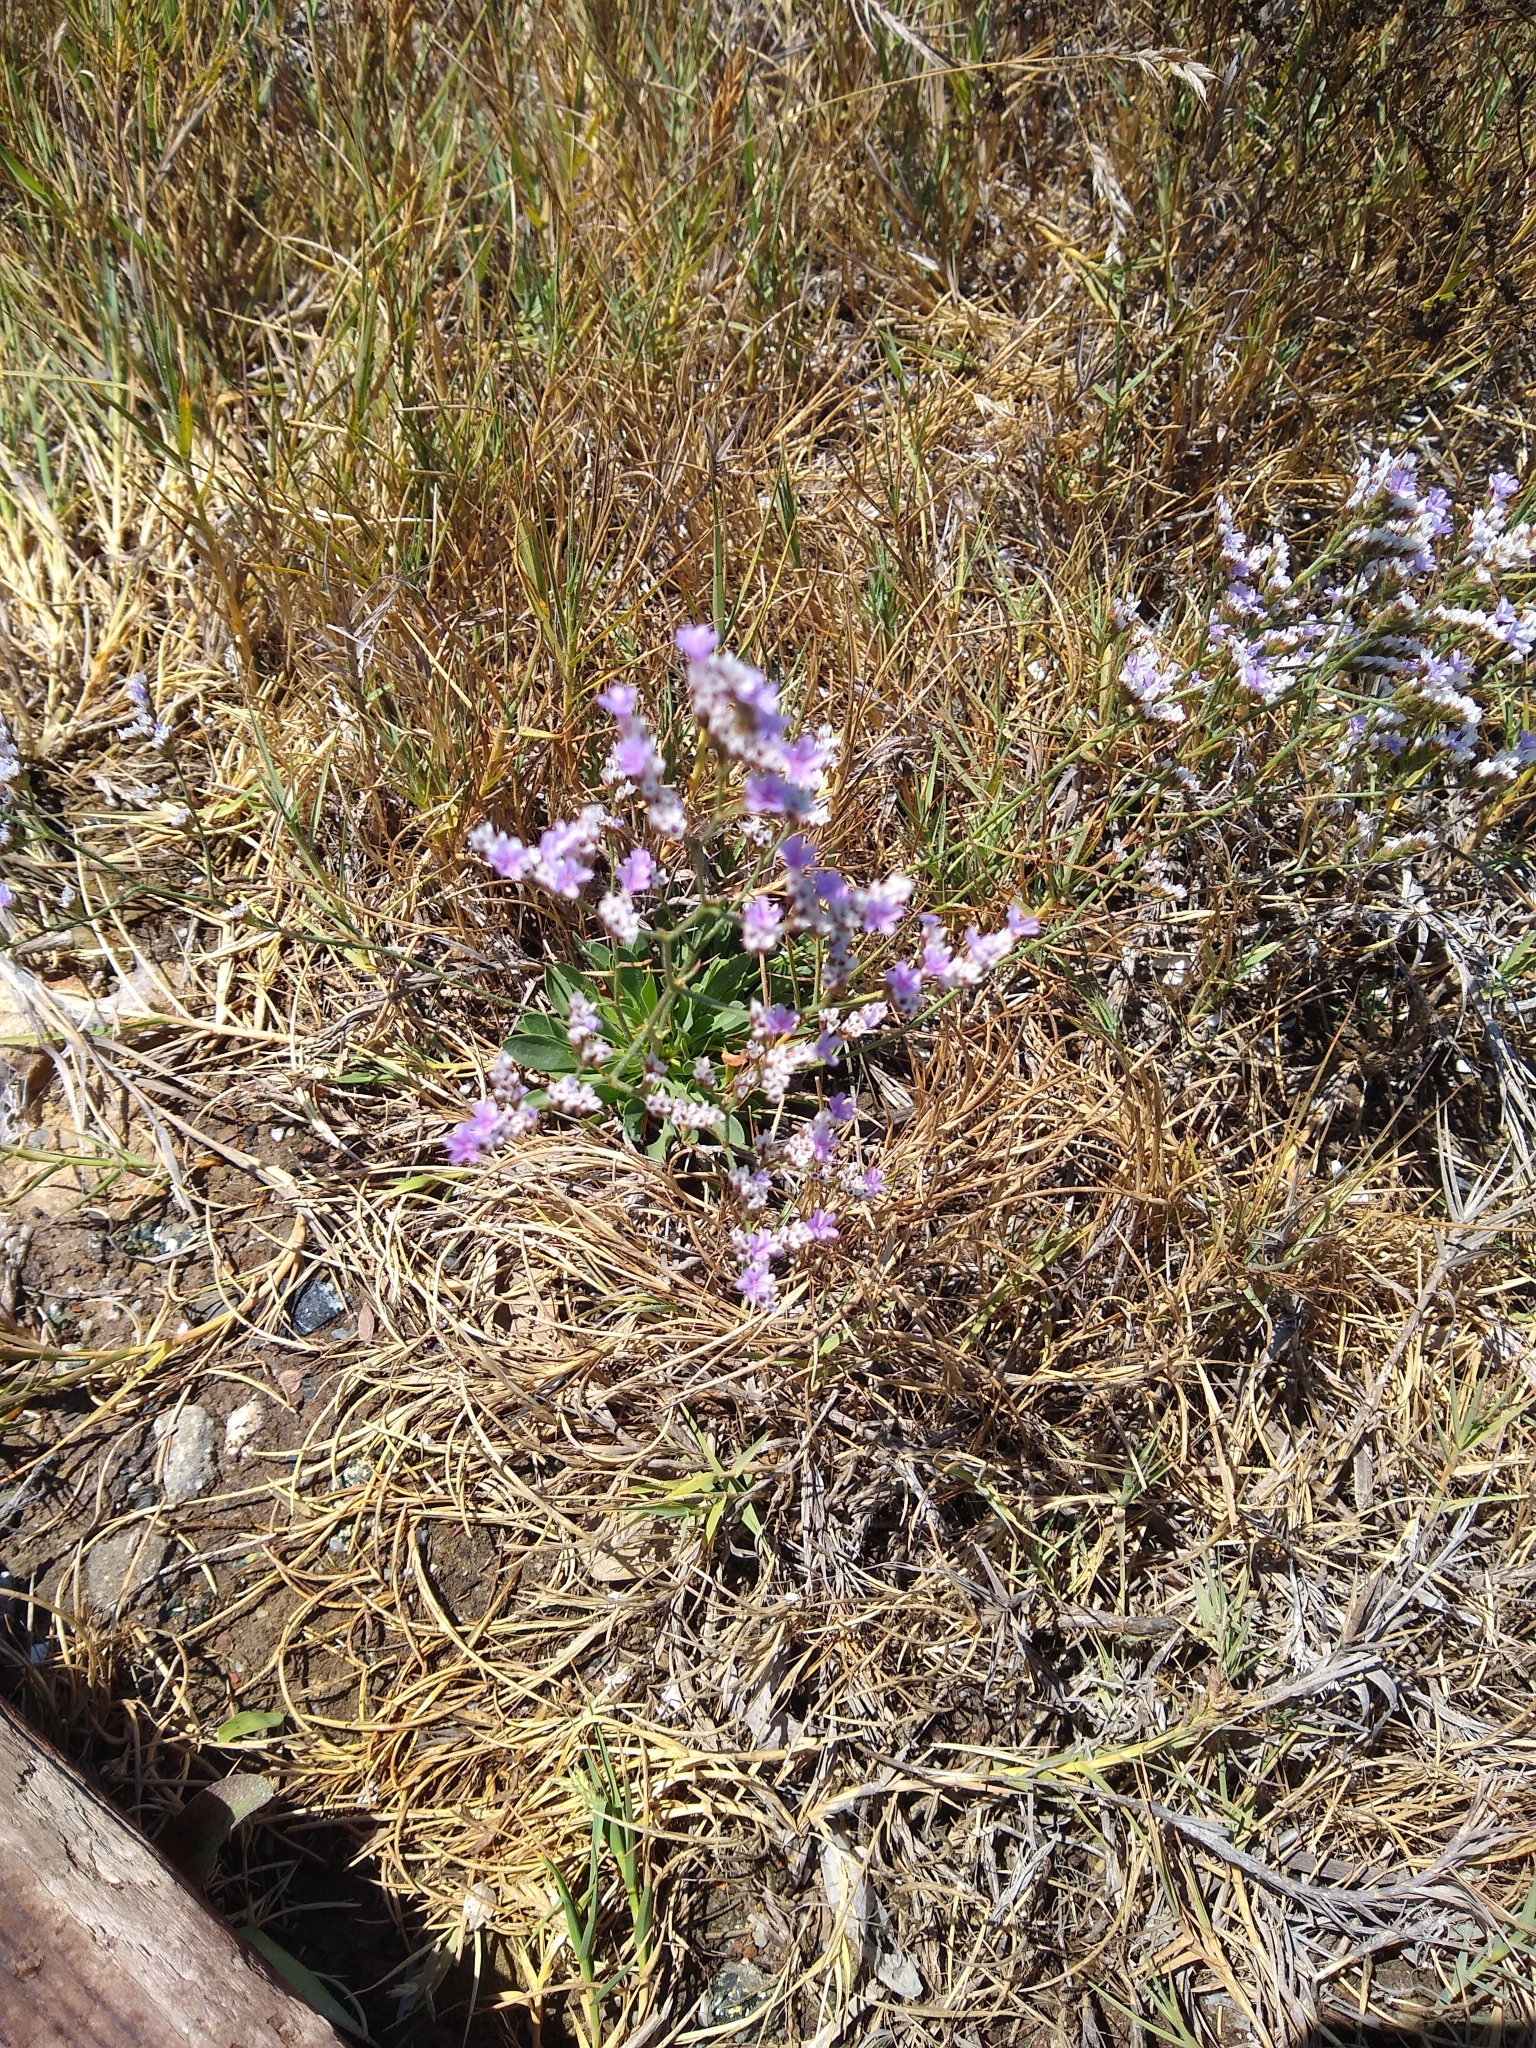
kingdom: Plantae
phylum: Tracheophyta
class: Magnoliopsida
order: Caryophyllales
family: Plumbaginaceae
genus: Limonium
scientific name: Limonium ramosissimum
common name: Algerian sea lavender
